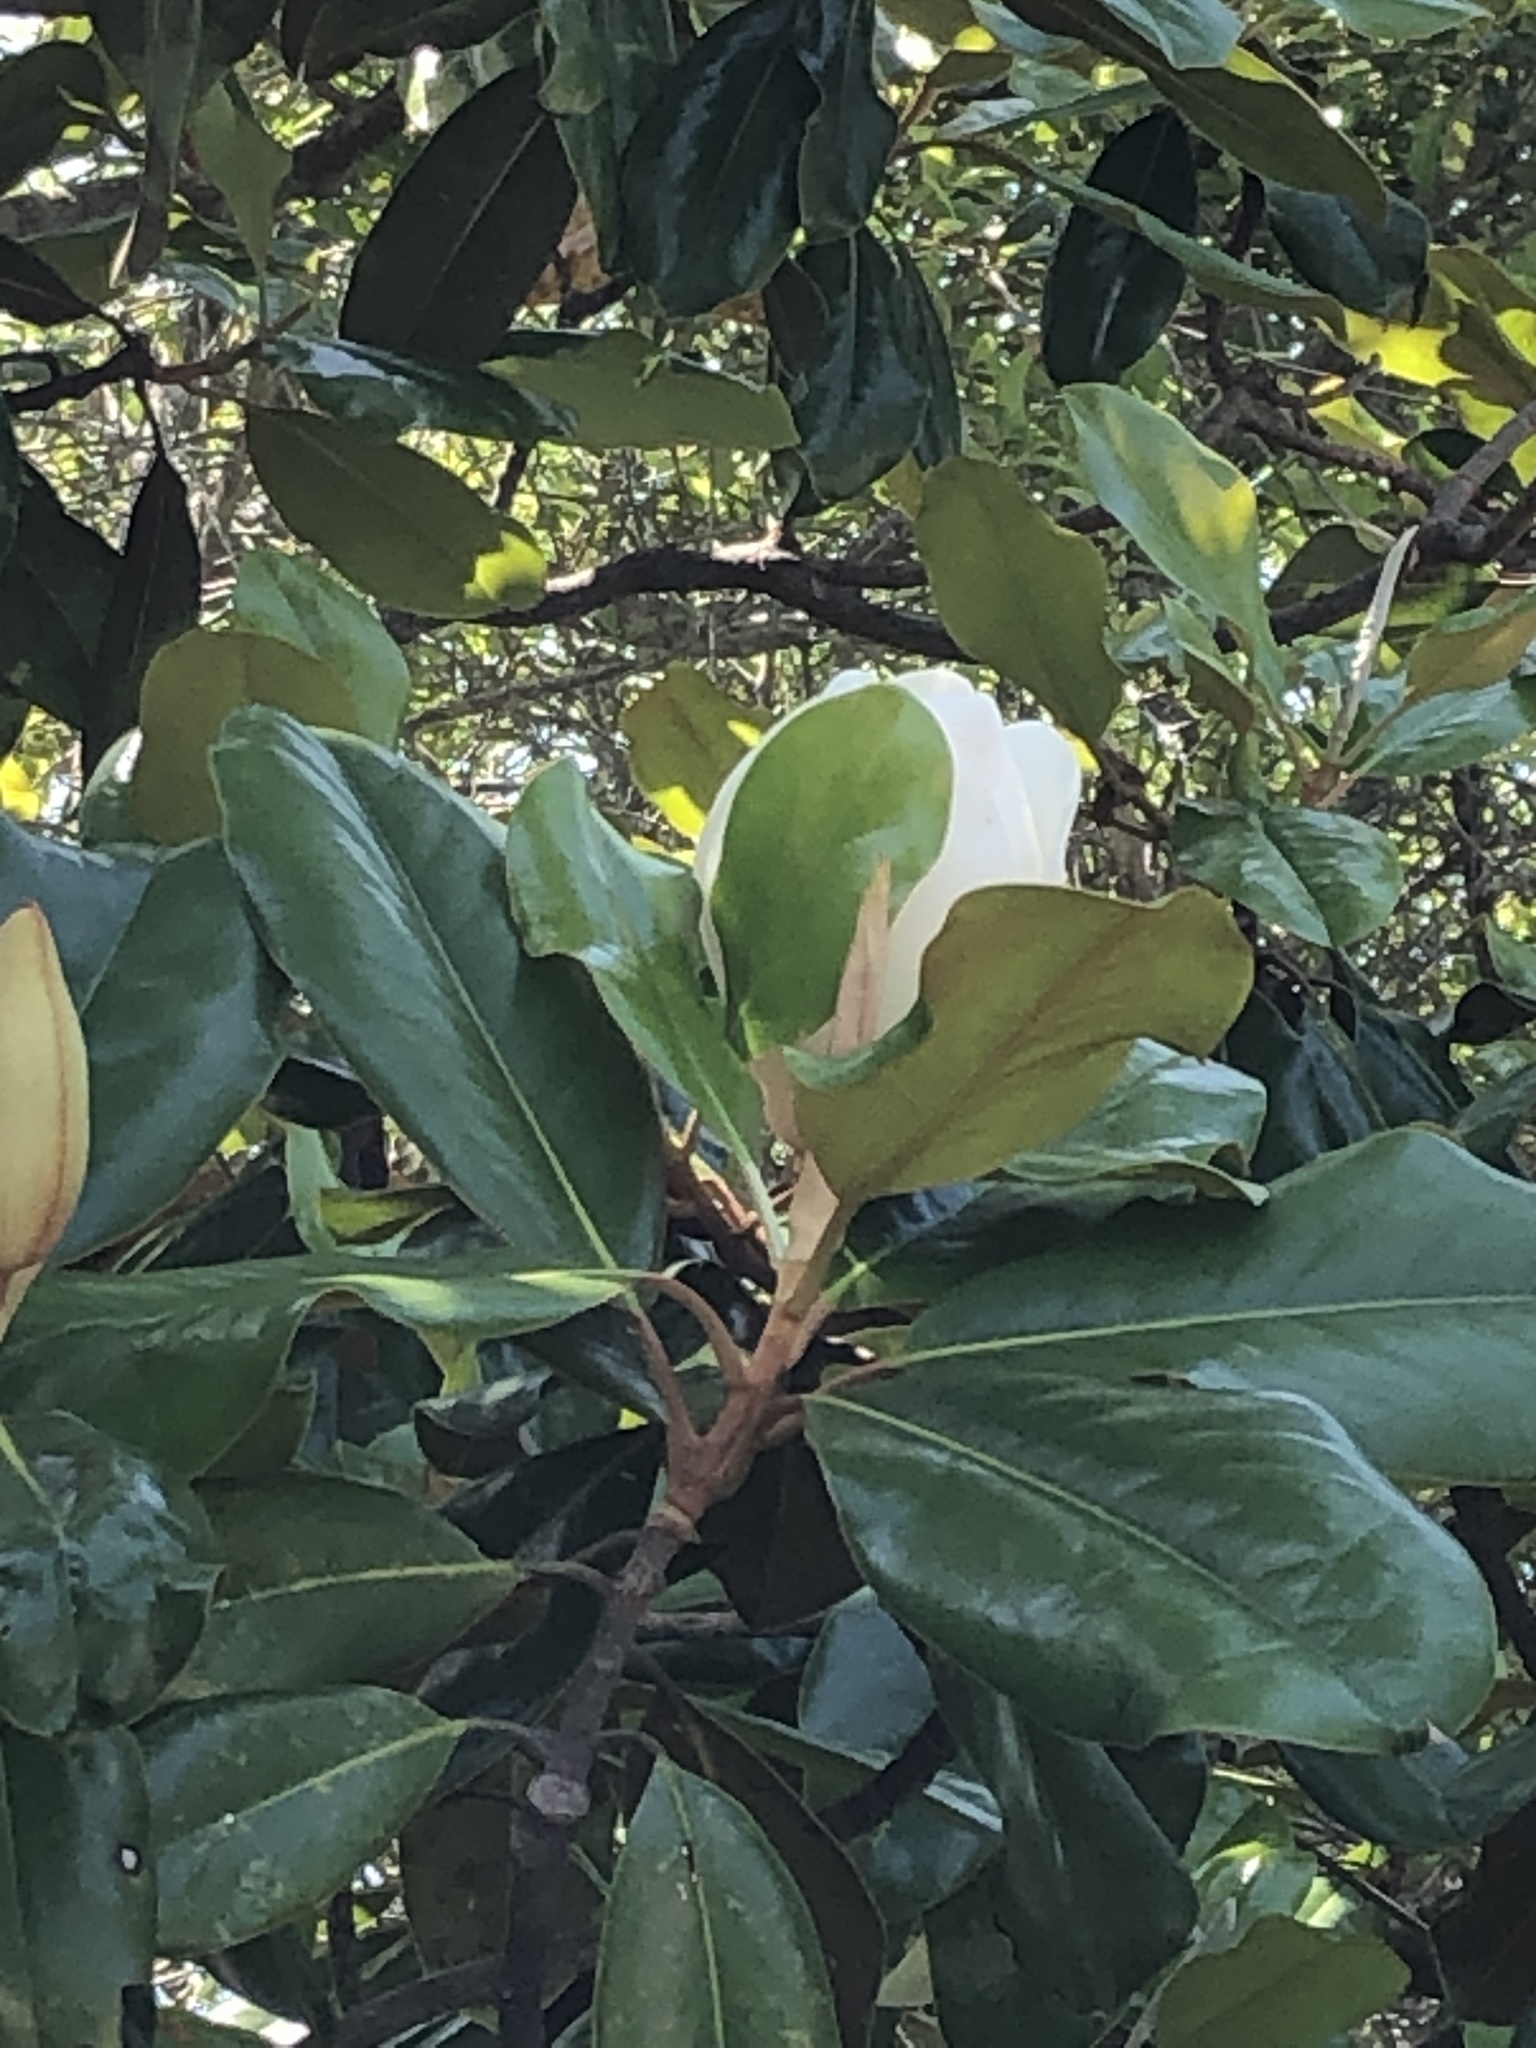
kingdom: Plantae
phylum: Tracheophyta
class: Magnoliopsida
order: Magnoliales
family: Magnoliaceae
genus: Magnolia
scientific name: Magnolia grandiflora
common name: Southern magnolia
